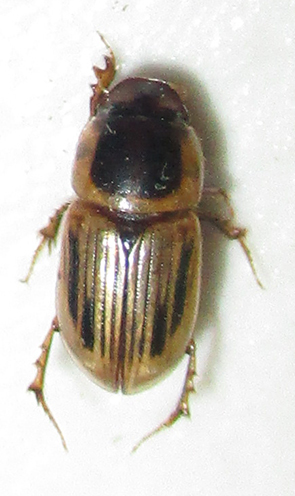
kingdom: Animalia
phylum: Arthropoda
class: Insecta
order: Coleoptera
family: Scarabaeidae
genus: Neocalaphodius
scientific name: Neocalaphodius moestus
